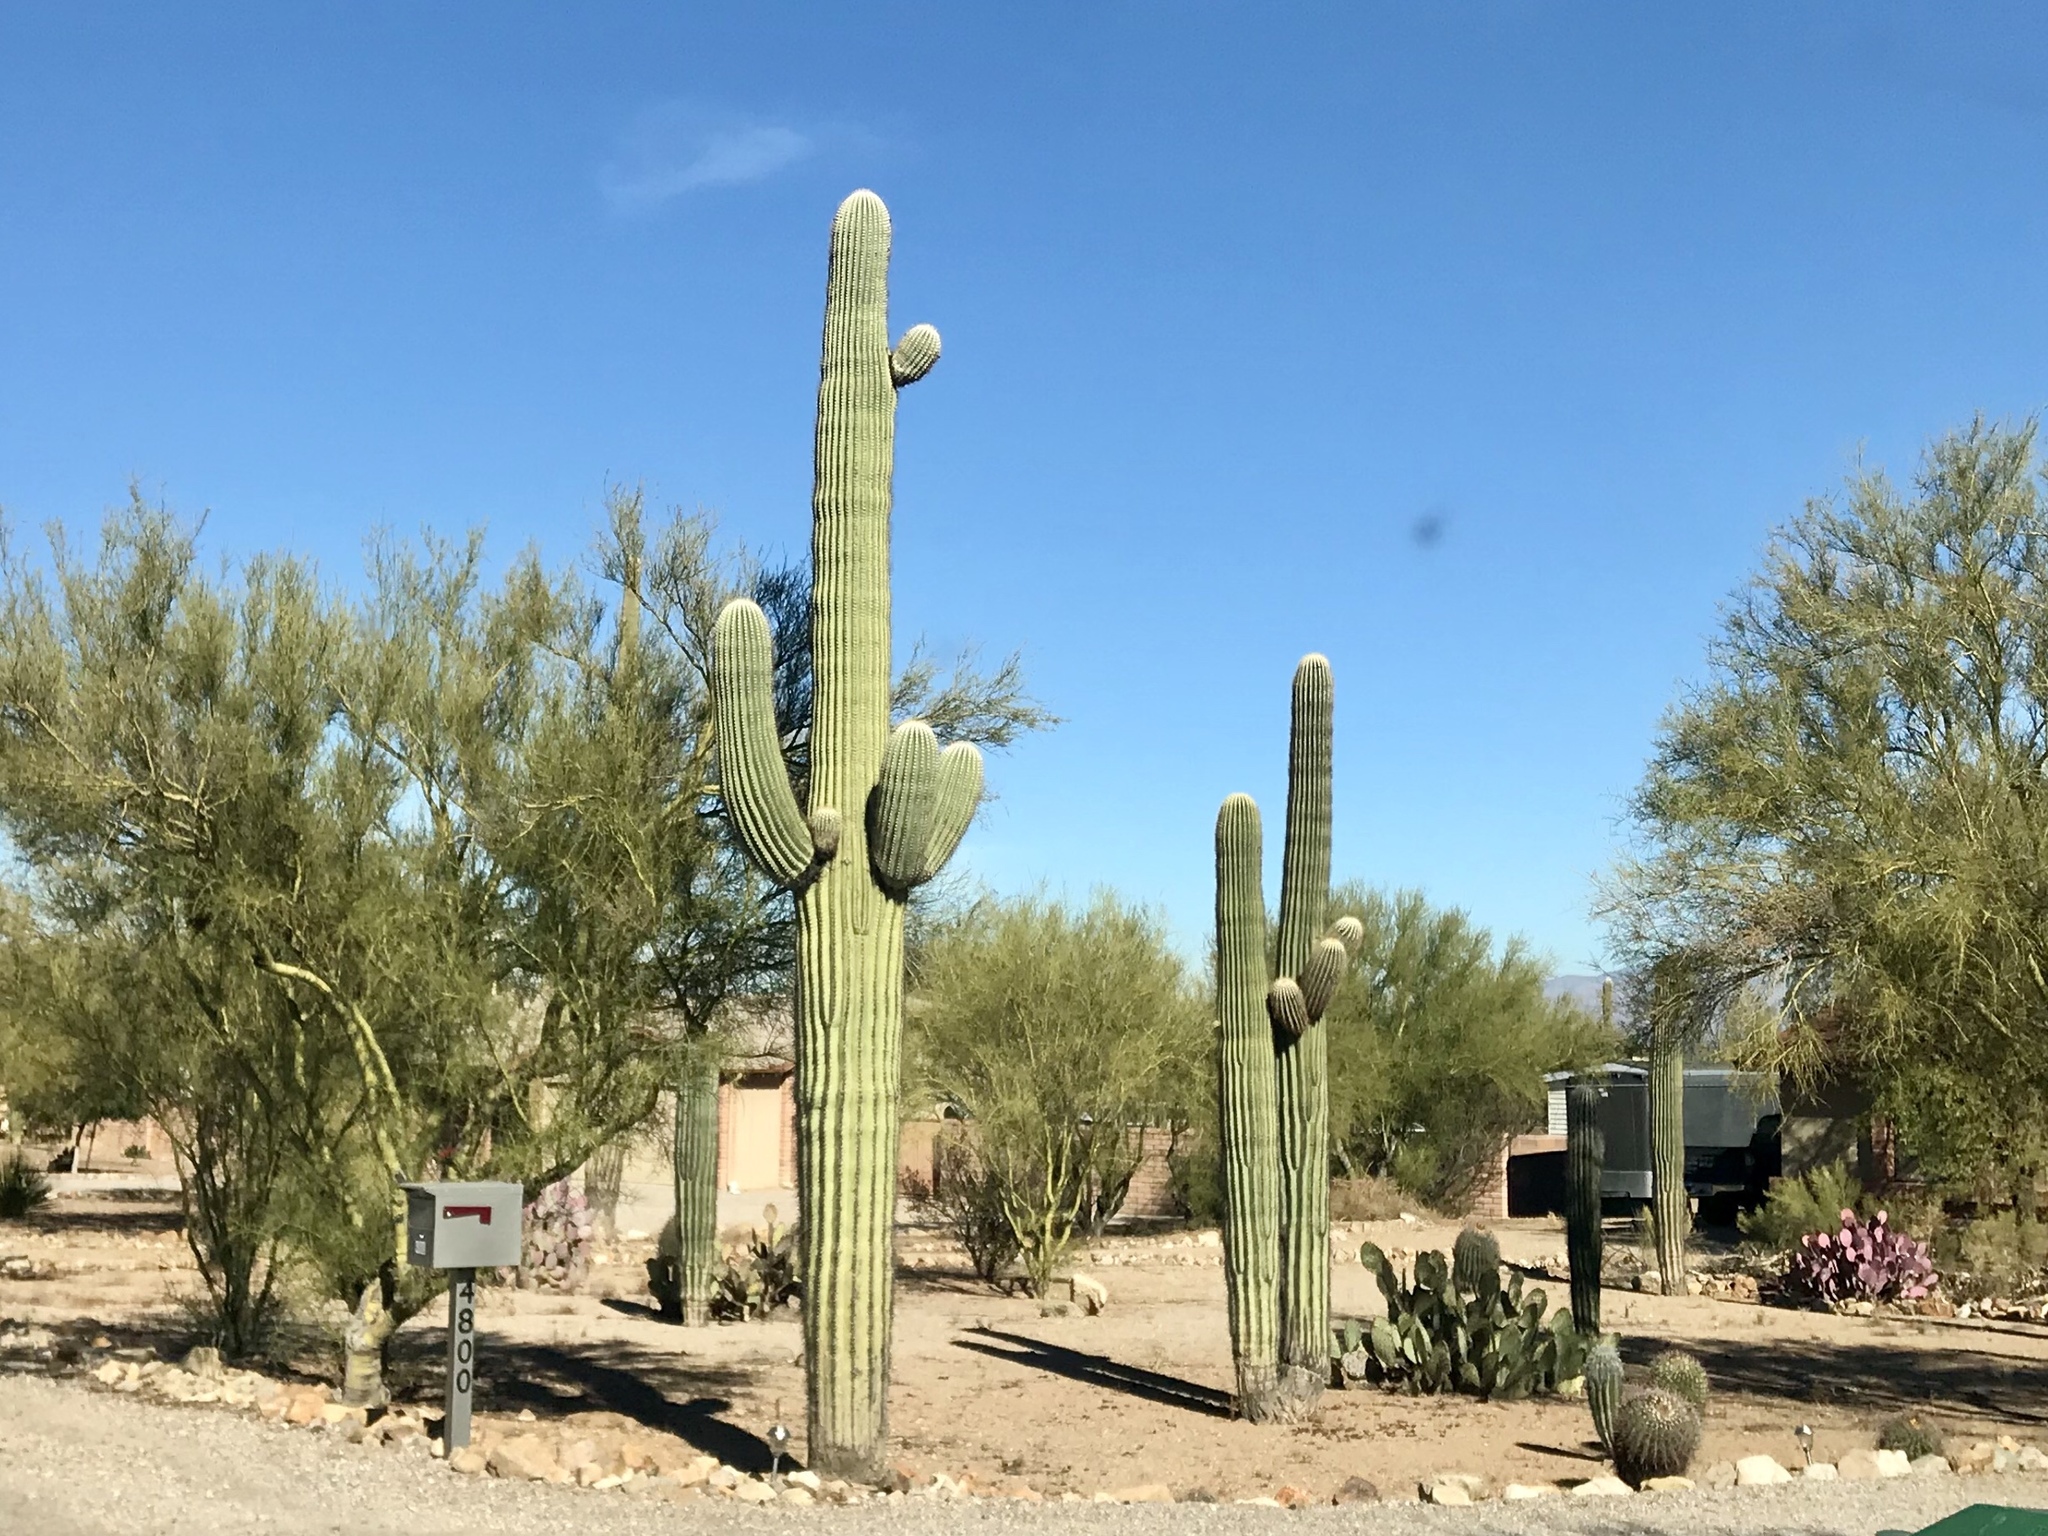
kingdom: Plantae
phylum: Tracheophyta
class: Magnoliopsida
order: Caryophyllales
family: Cactaceae
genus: Carnegiea
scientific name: Carnegiea gigantea
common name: Saguaro
